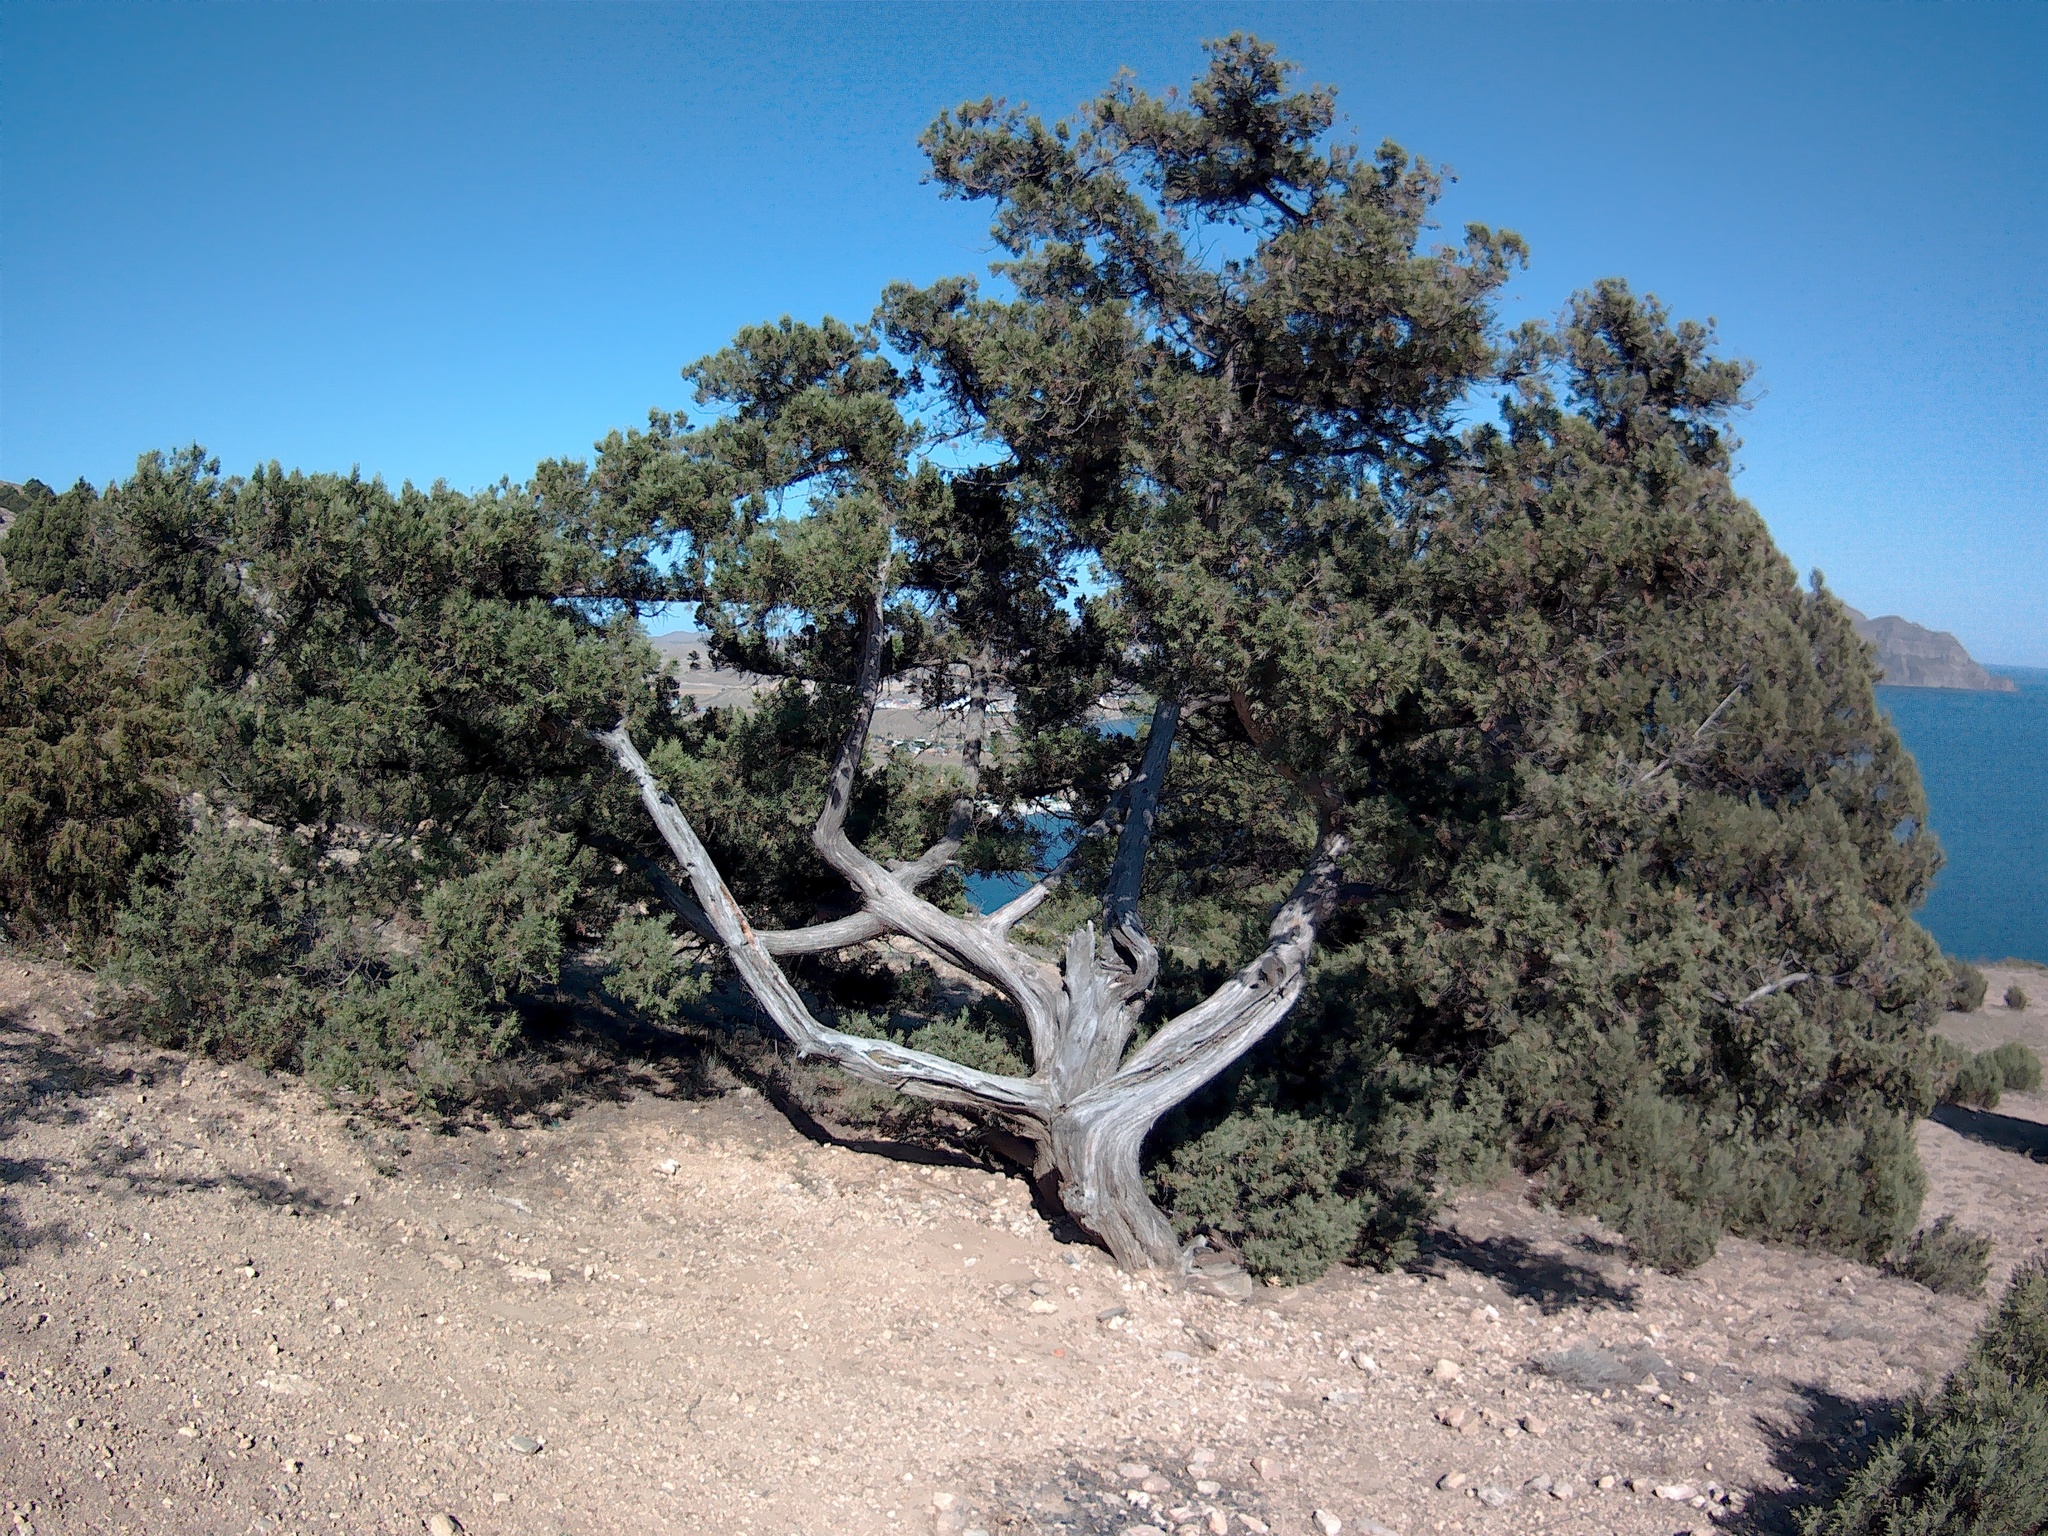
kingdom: Plantae
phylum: Tracheophyta
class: Pinopsida
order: Pinales
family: Cupressaceae
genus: Juniperus
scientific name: Juniperus excelsa
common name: Crimean juniper
